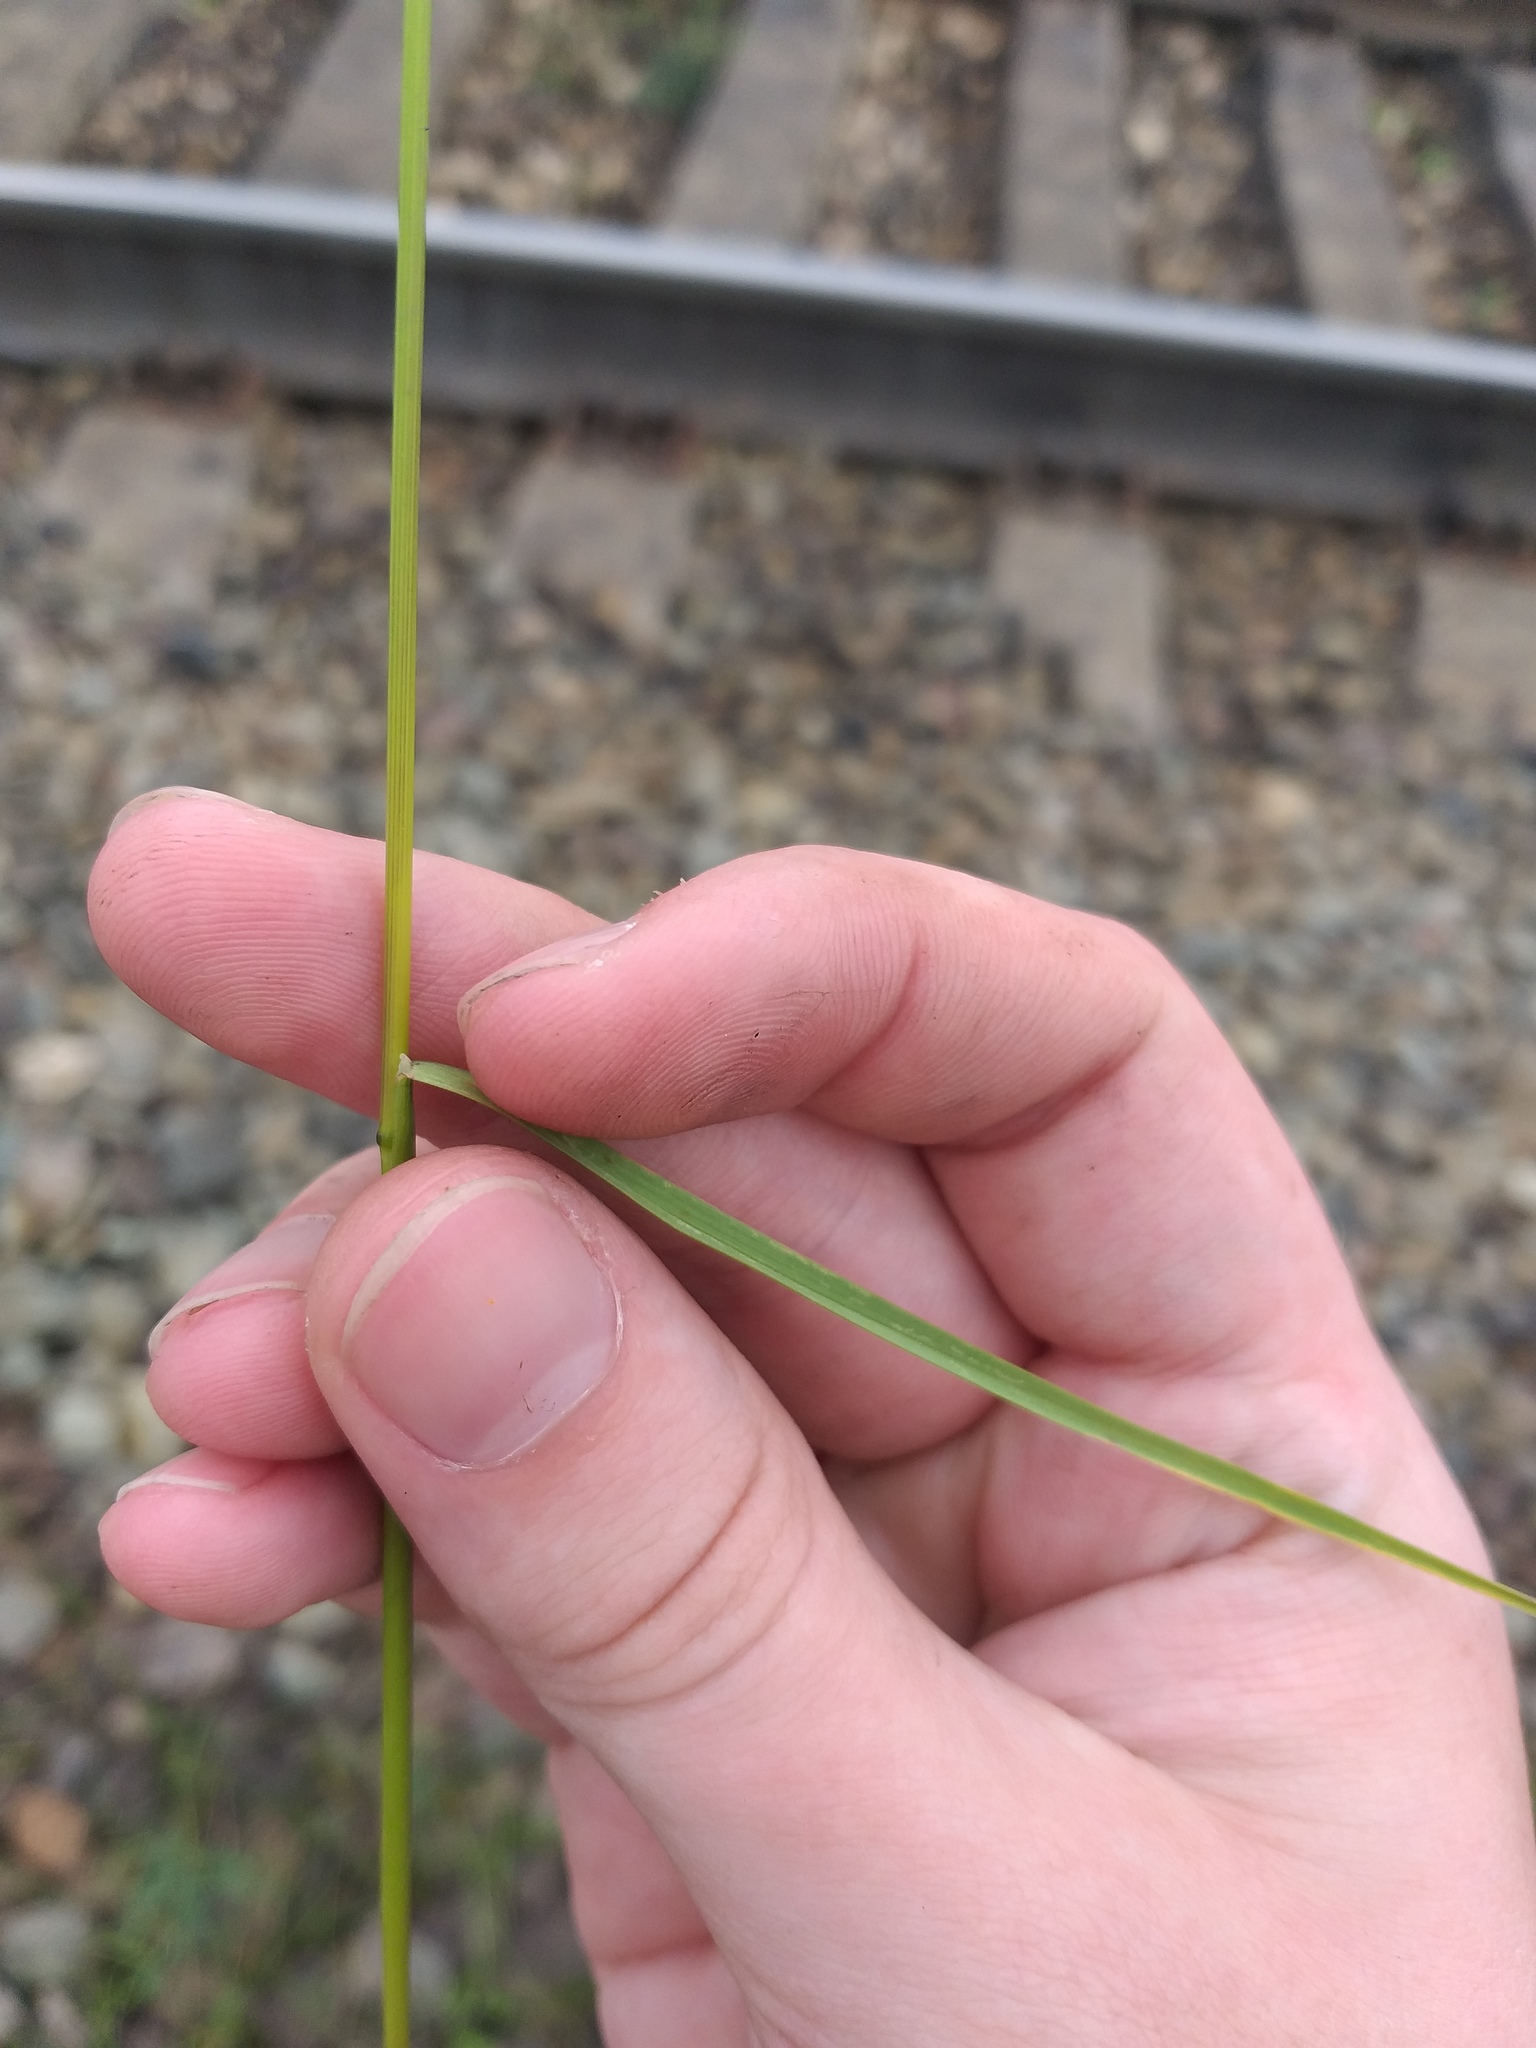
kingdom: Plantae
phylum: Tracheophyta
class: Liliopsida
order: Poales
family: Poaceae
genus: Poa
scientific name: Poa angustifolia
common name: Narrow-leaved meadow-grass
